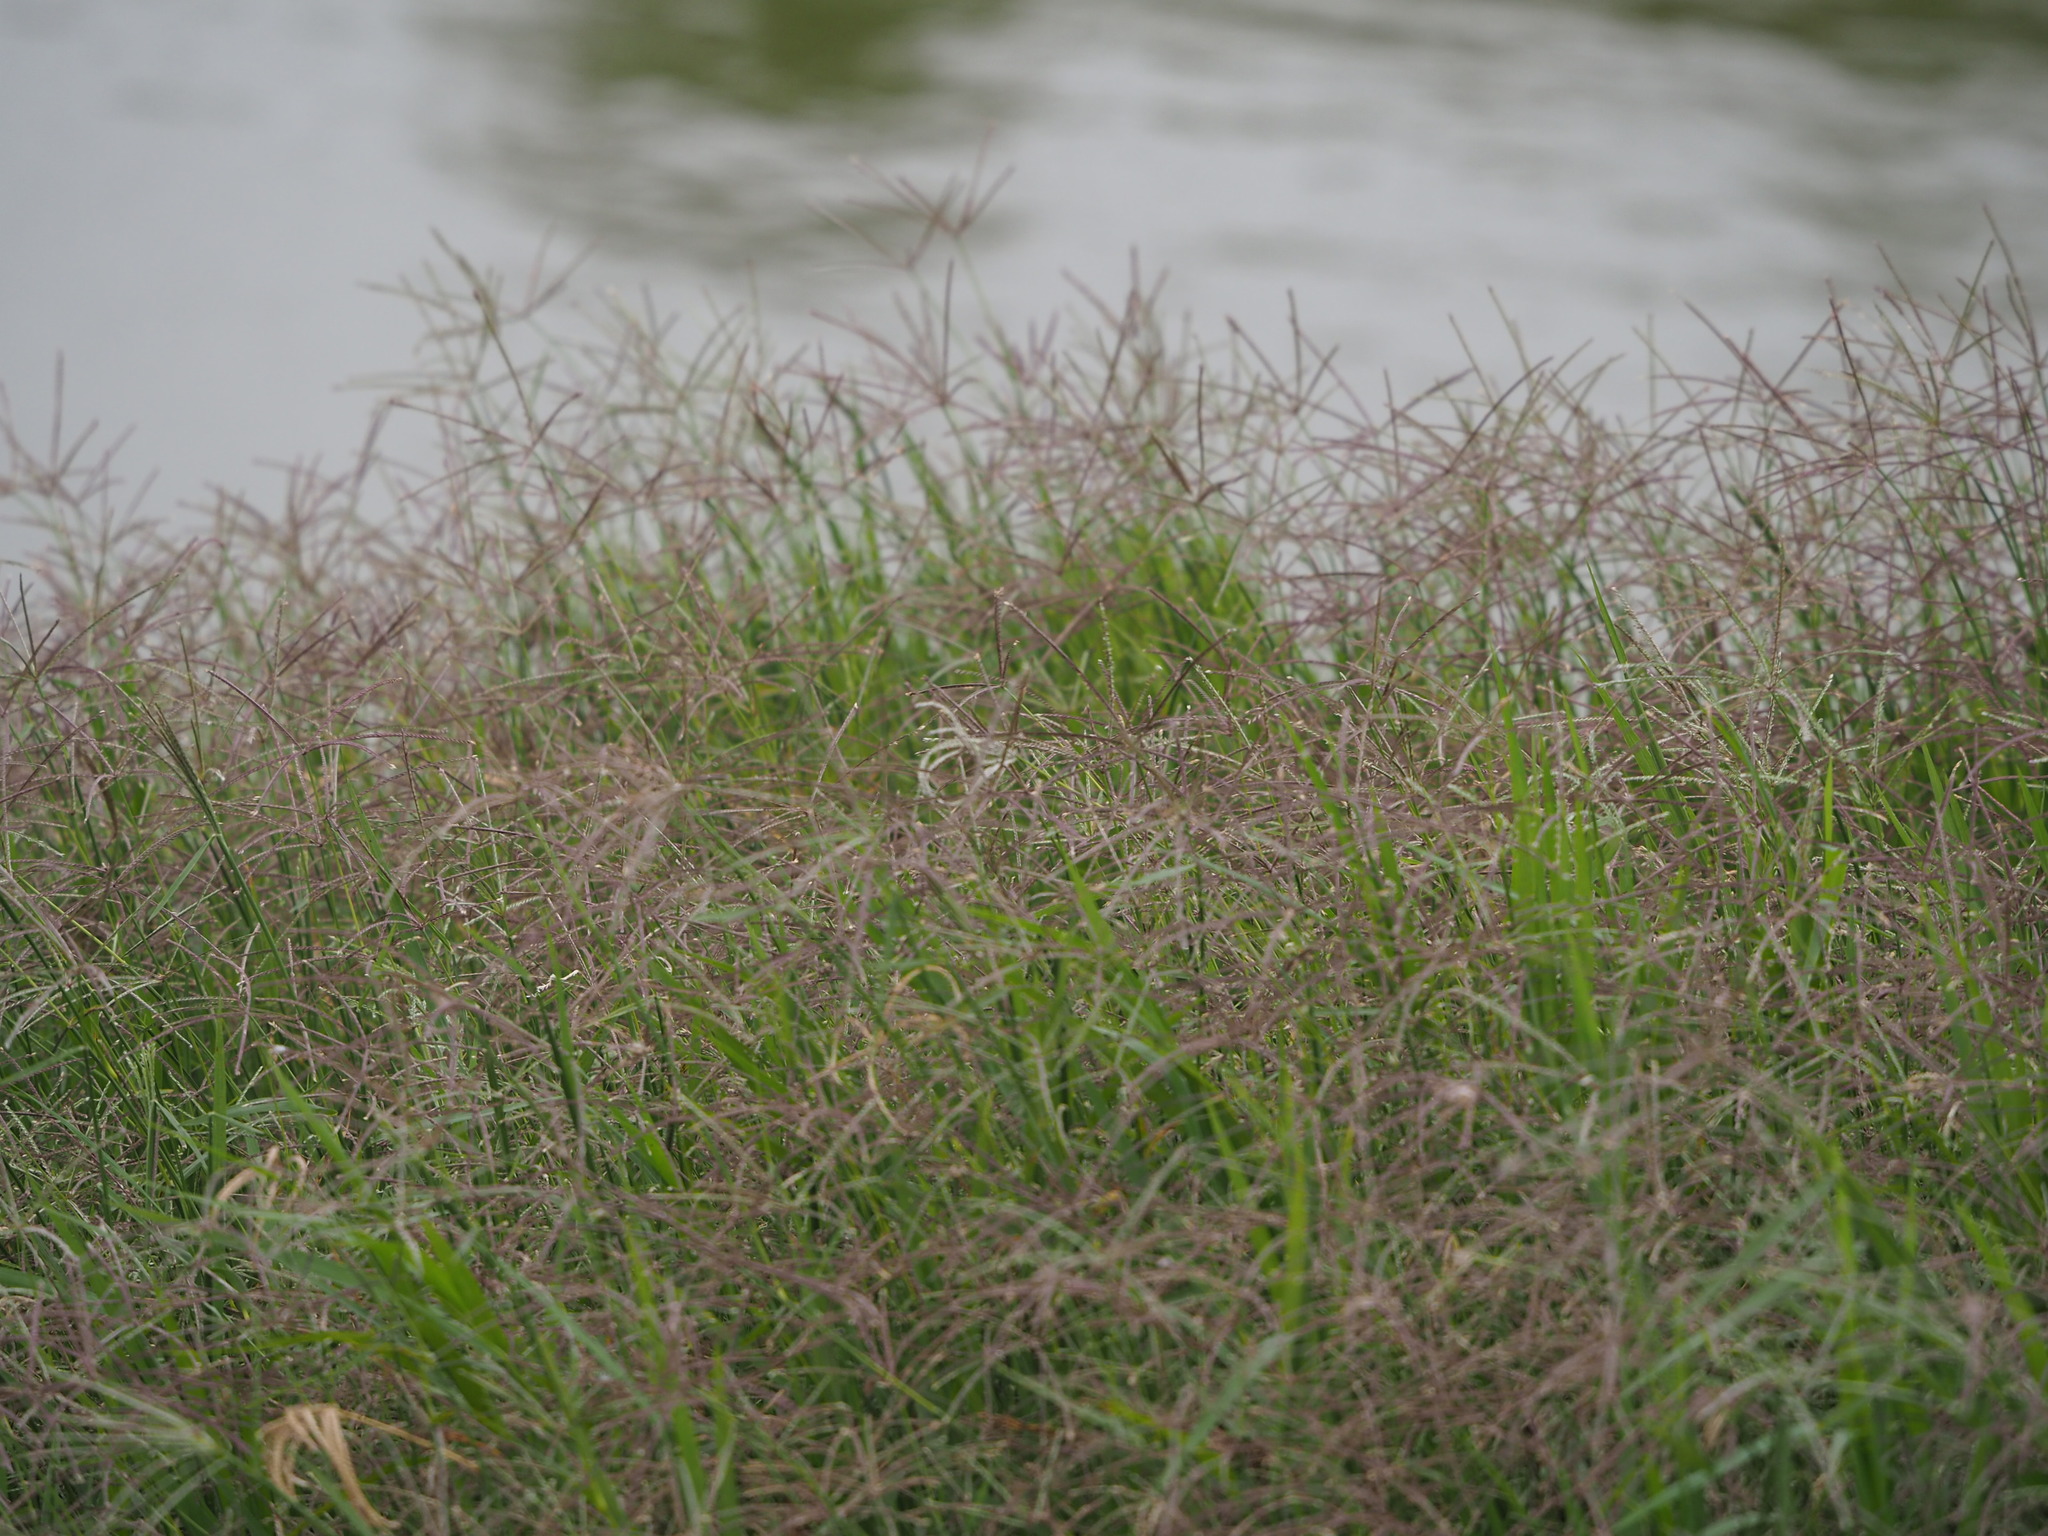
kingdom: Plantae
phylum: Tracheophyta
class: Liliopsida
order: Poales
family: Poaceae
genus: Cynodon
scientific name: Cynodon nlemfuensis
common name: African bermudagrass
